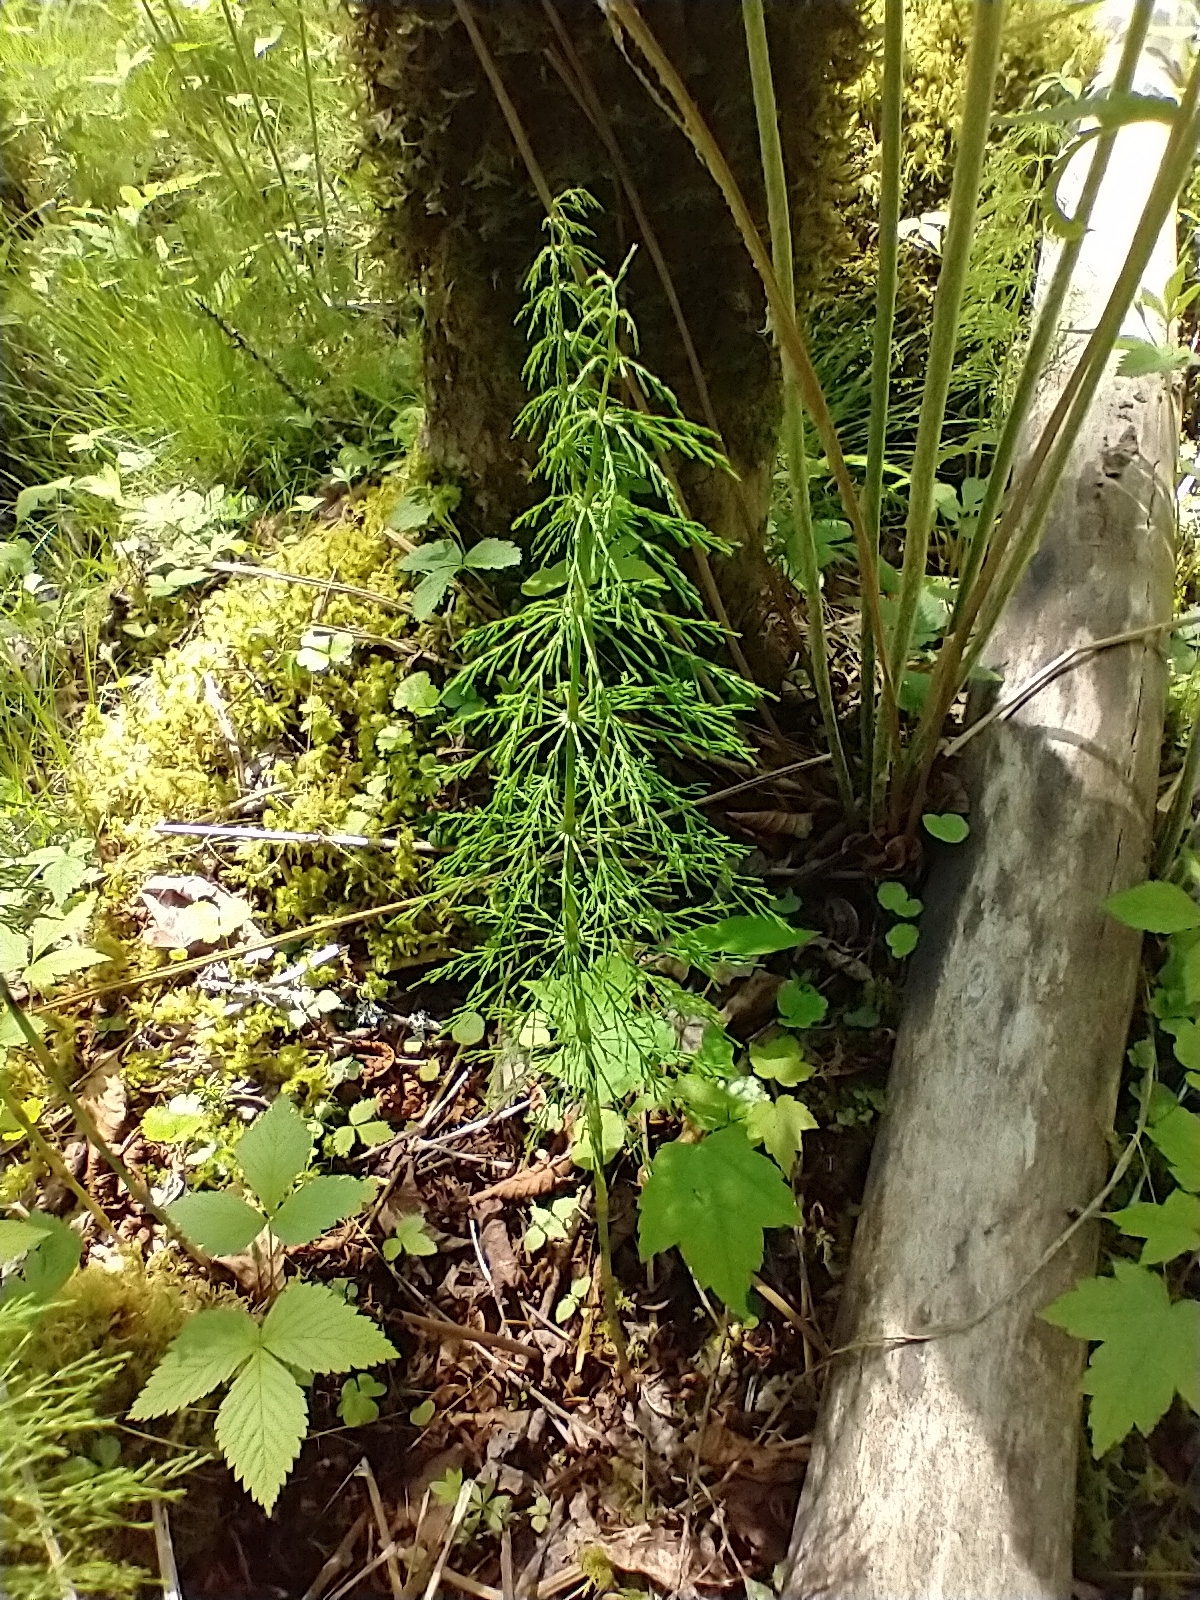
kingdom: Plantae
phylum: Tracheophyta
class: Polypodiopsida
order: Equisetales
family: Equisetaceae
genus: Equisetum
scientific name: Equisetum sylvaticum
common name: Wood horsetail
